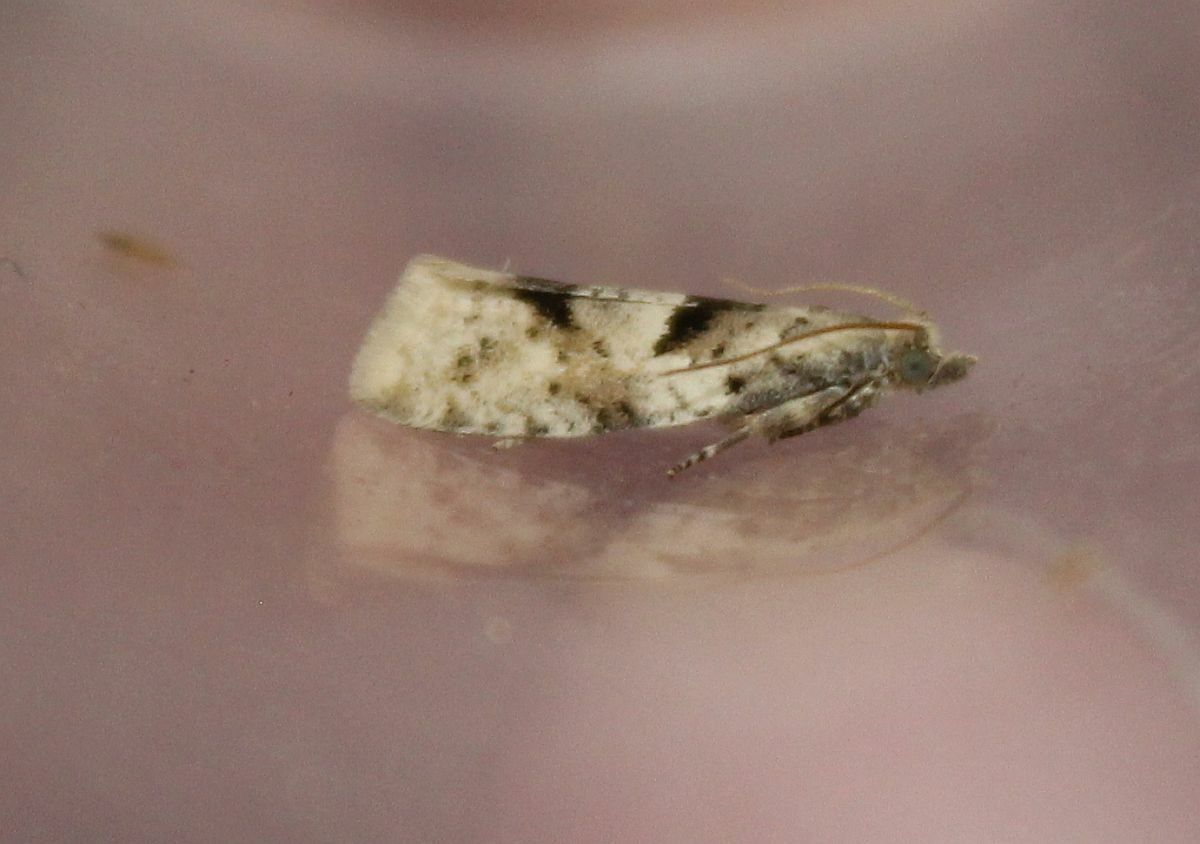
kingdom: Animalia
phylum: Arthropoda
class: Insecta
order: Lepidoptera
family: Tortricidae
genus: Epinotia
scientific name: Epinotia bilunana
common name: Crescent bell
